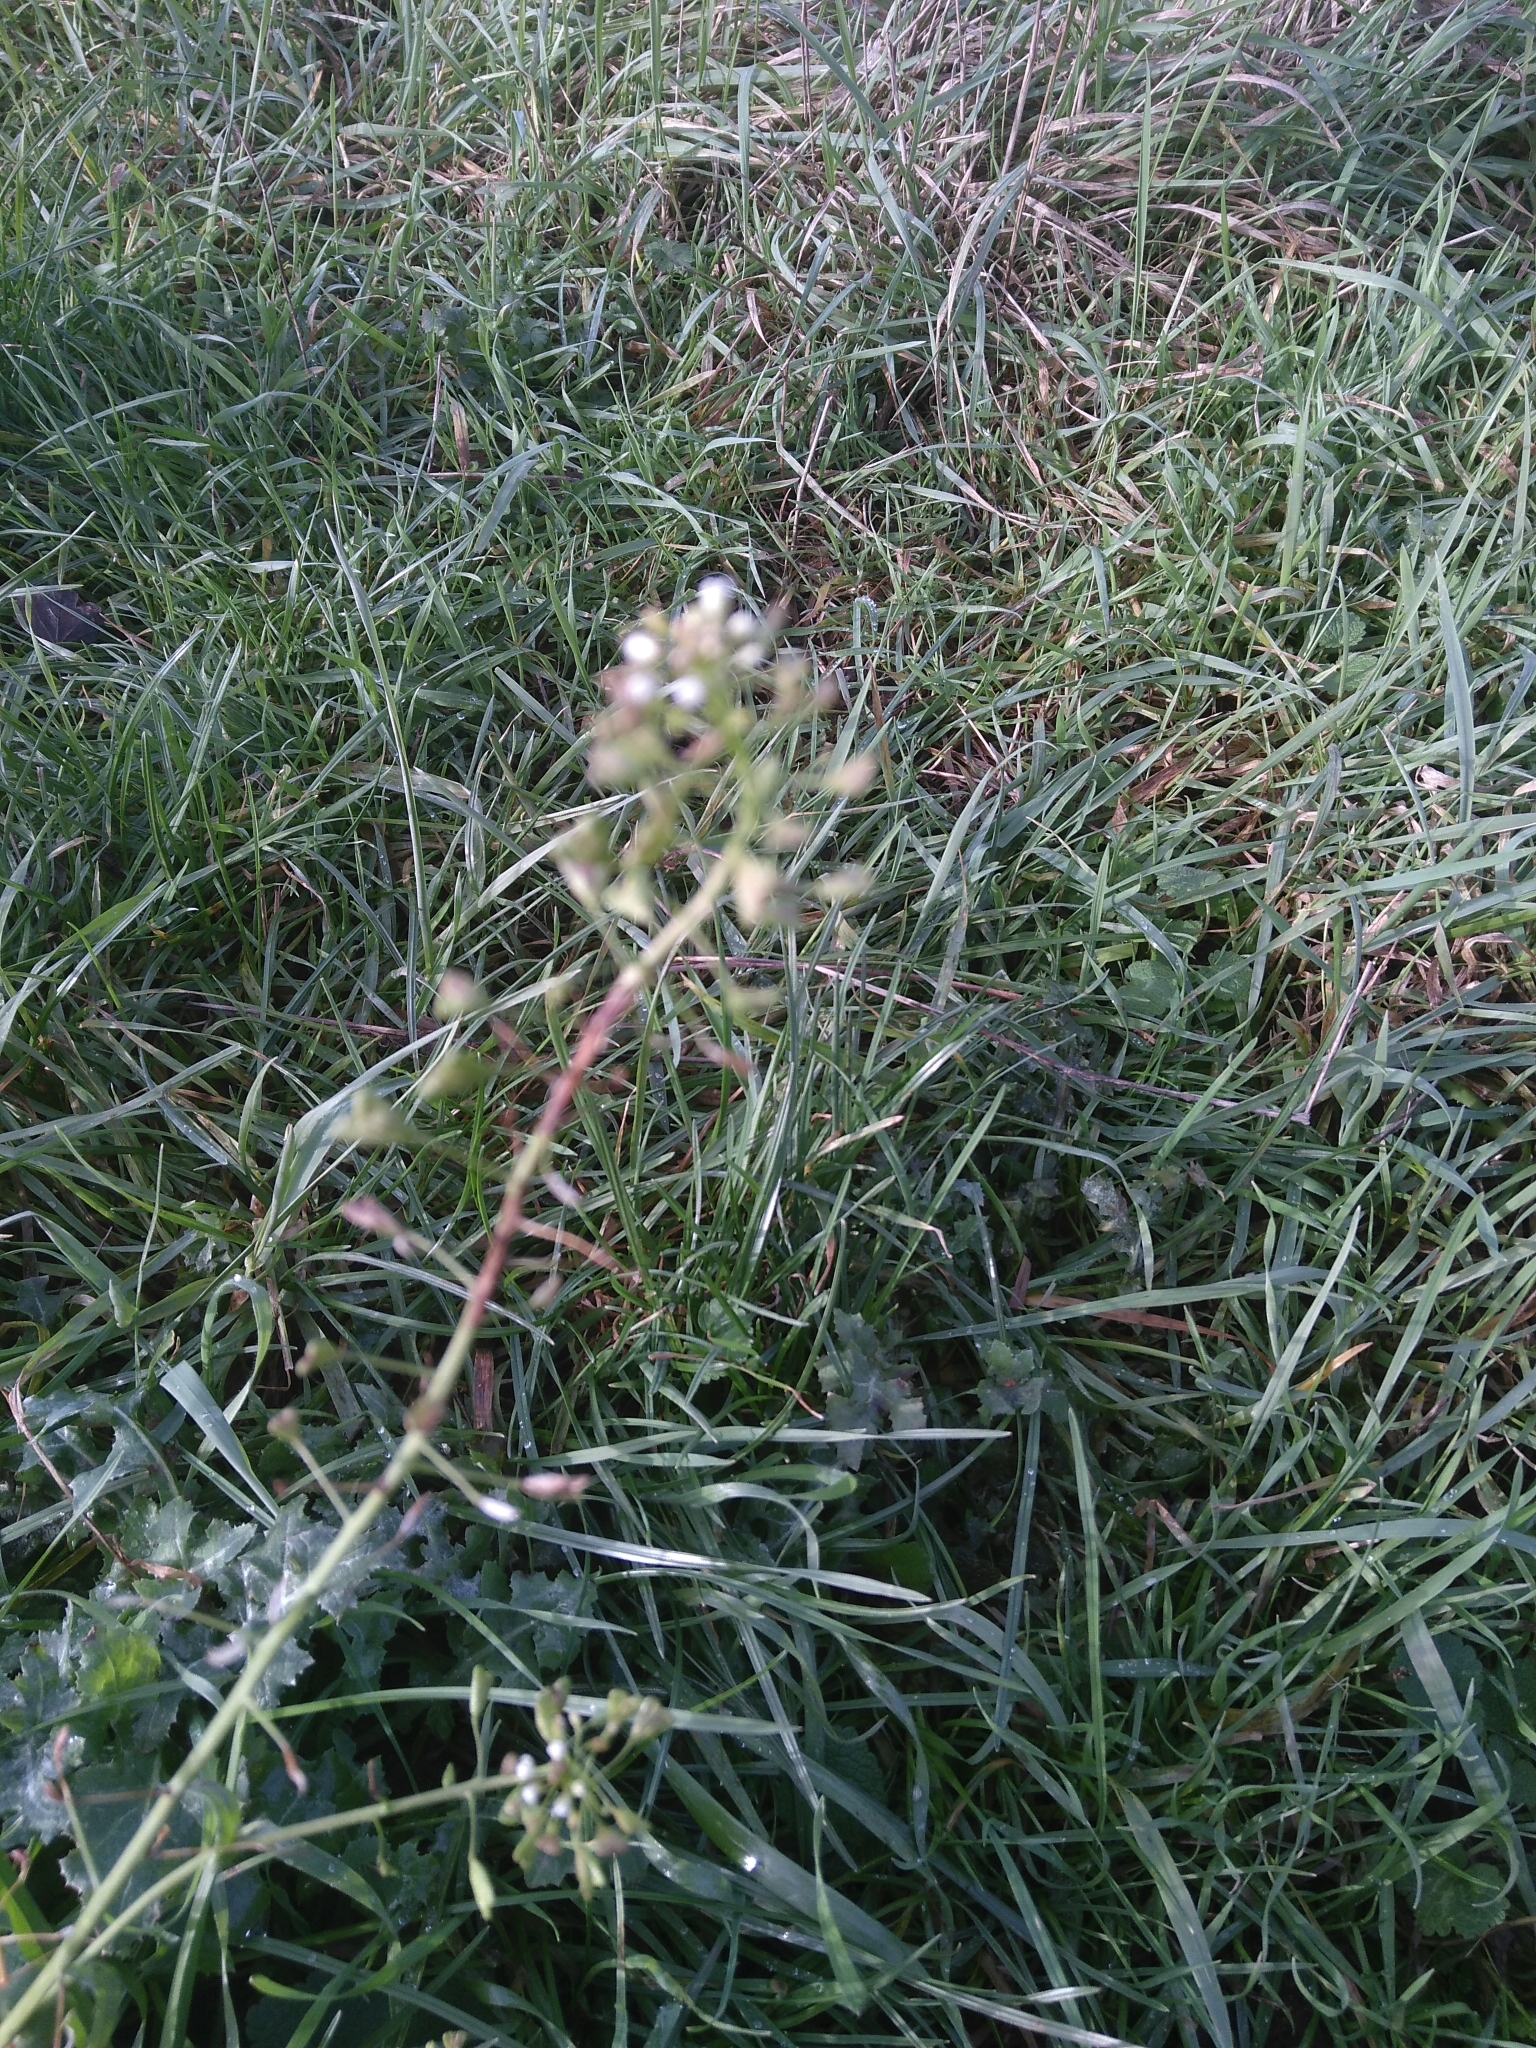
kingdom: Plantae
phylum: Tracheophyta
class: Magnoliopsida
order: Brassicales
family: Brassicaceae
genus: Capsella
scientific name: Capsella bursa-pastoris
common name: Shepherd's purse
